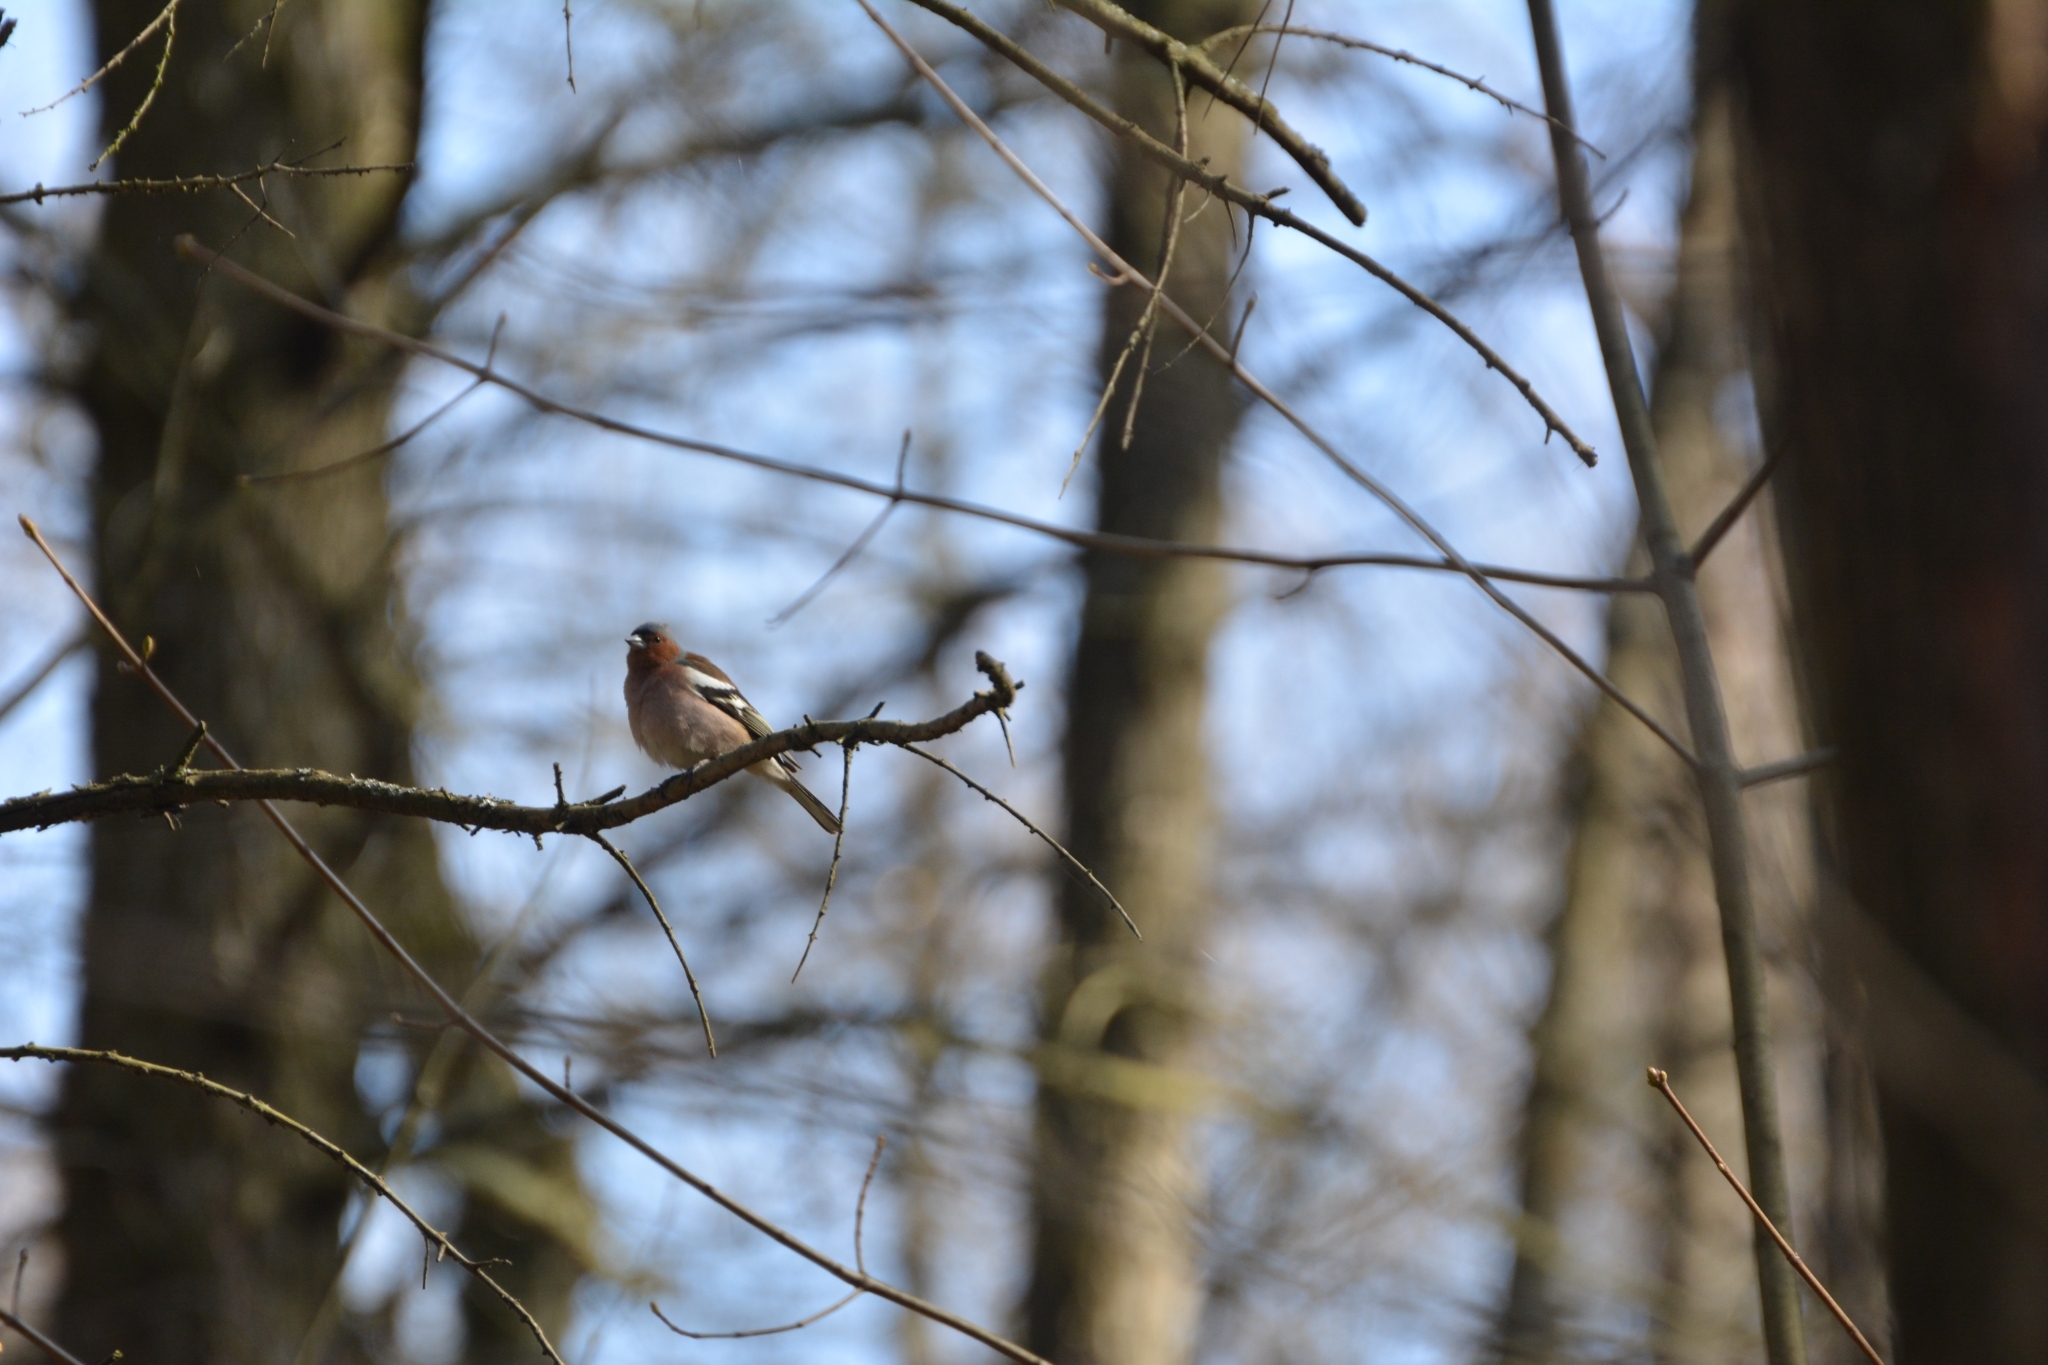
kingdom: Animalia
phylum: Chordata
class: Aves
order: Passeriformes
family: Fringillidae
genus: Fringilla
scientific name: Fringilla coelebs
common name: Common chaffinch
